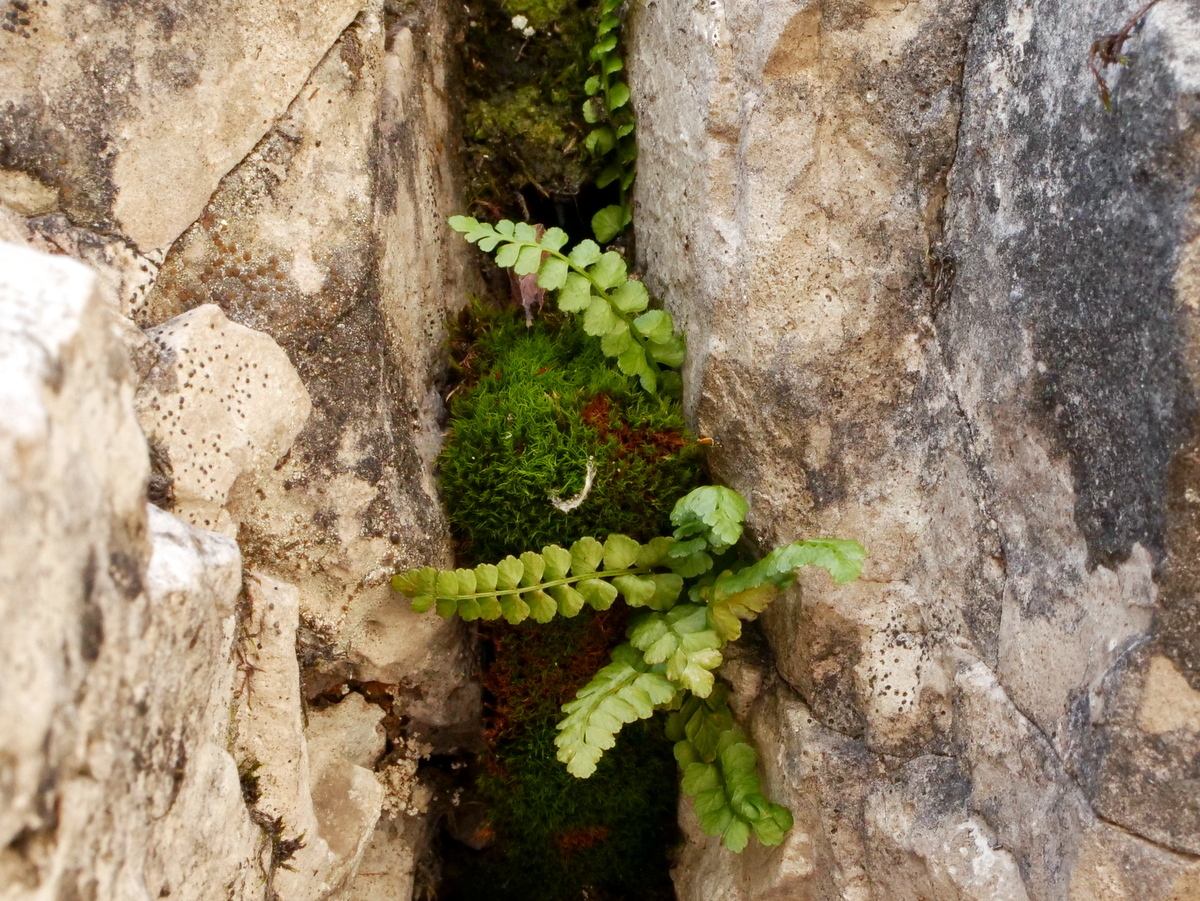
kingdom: Plantae
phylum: Tracheophyta
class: Polypodiopsida
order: Polypodiales
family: Aspleniaceae
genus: Asplenium
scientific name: Asplenium viride
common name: Green spleenwort
